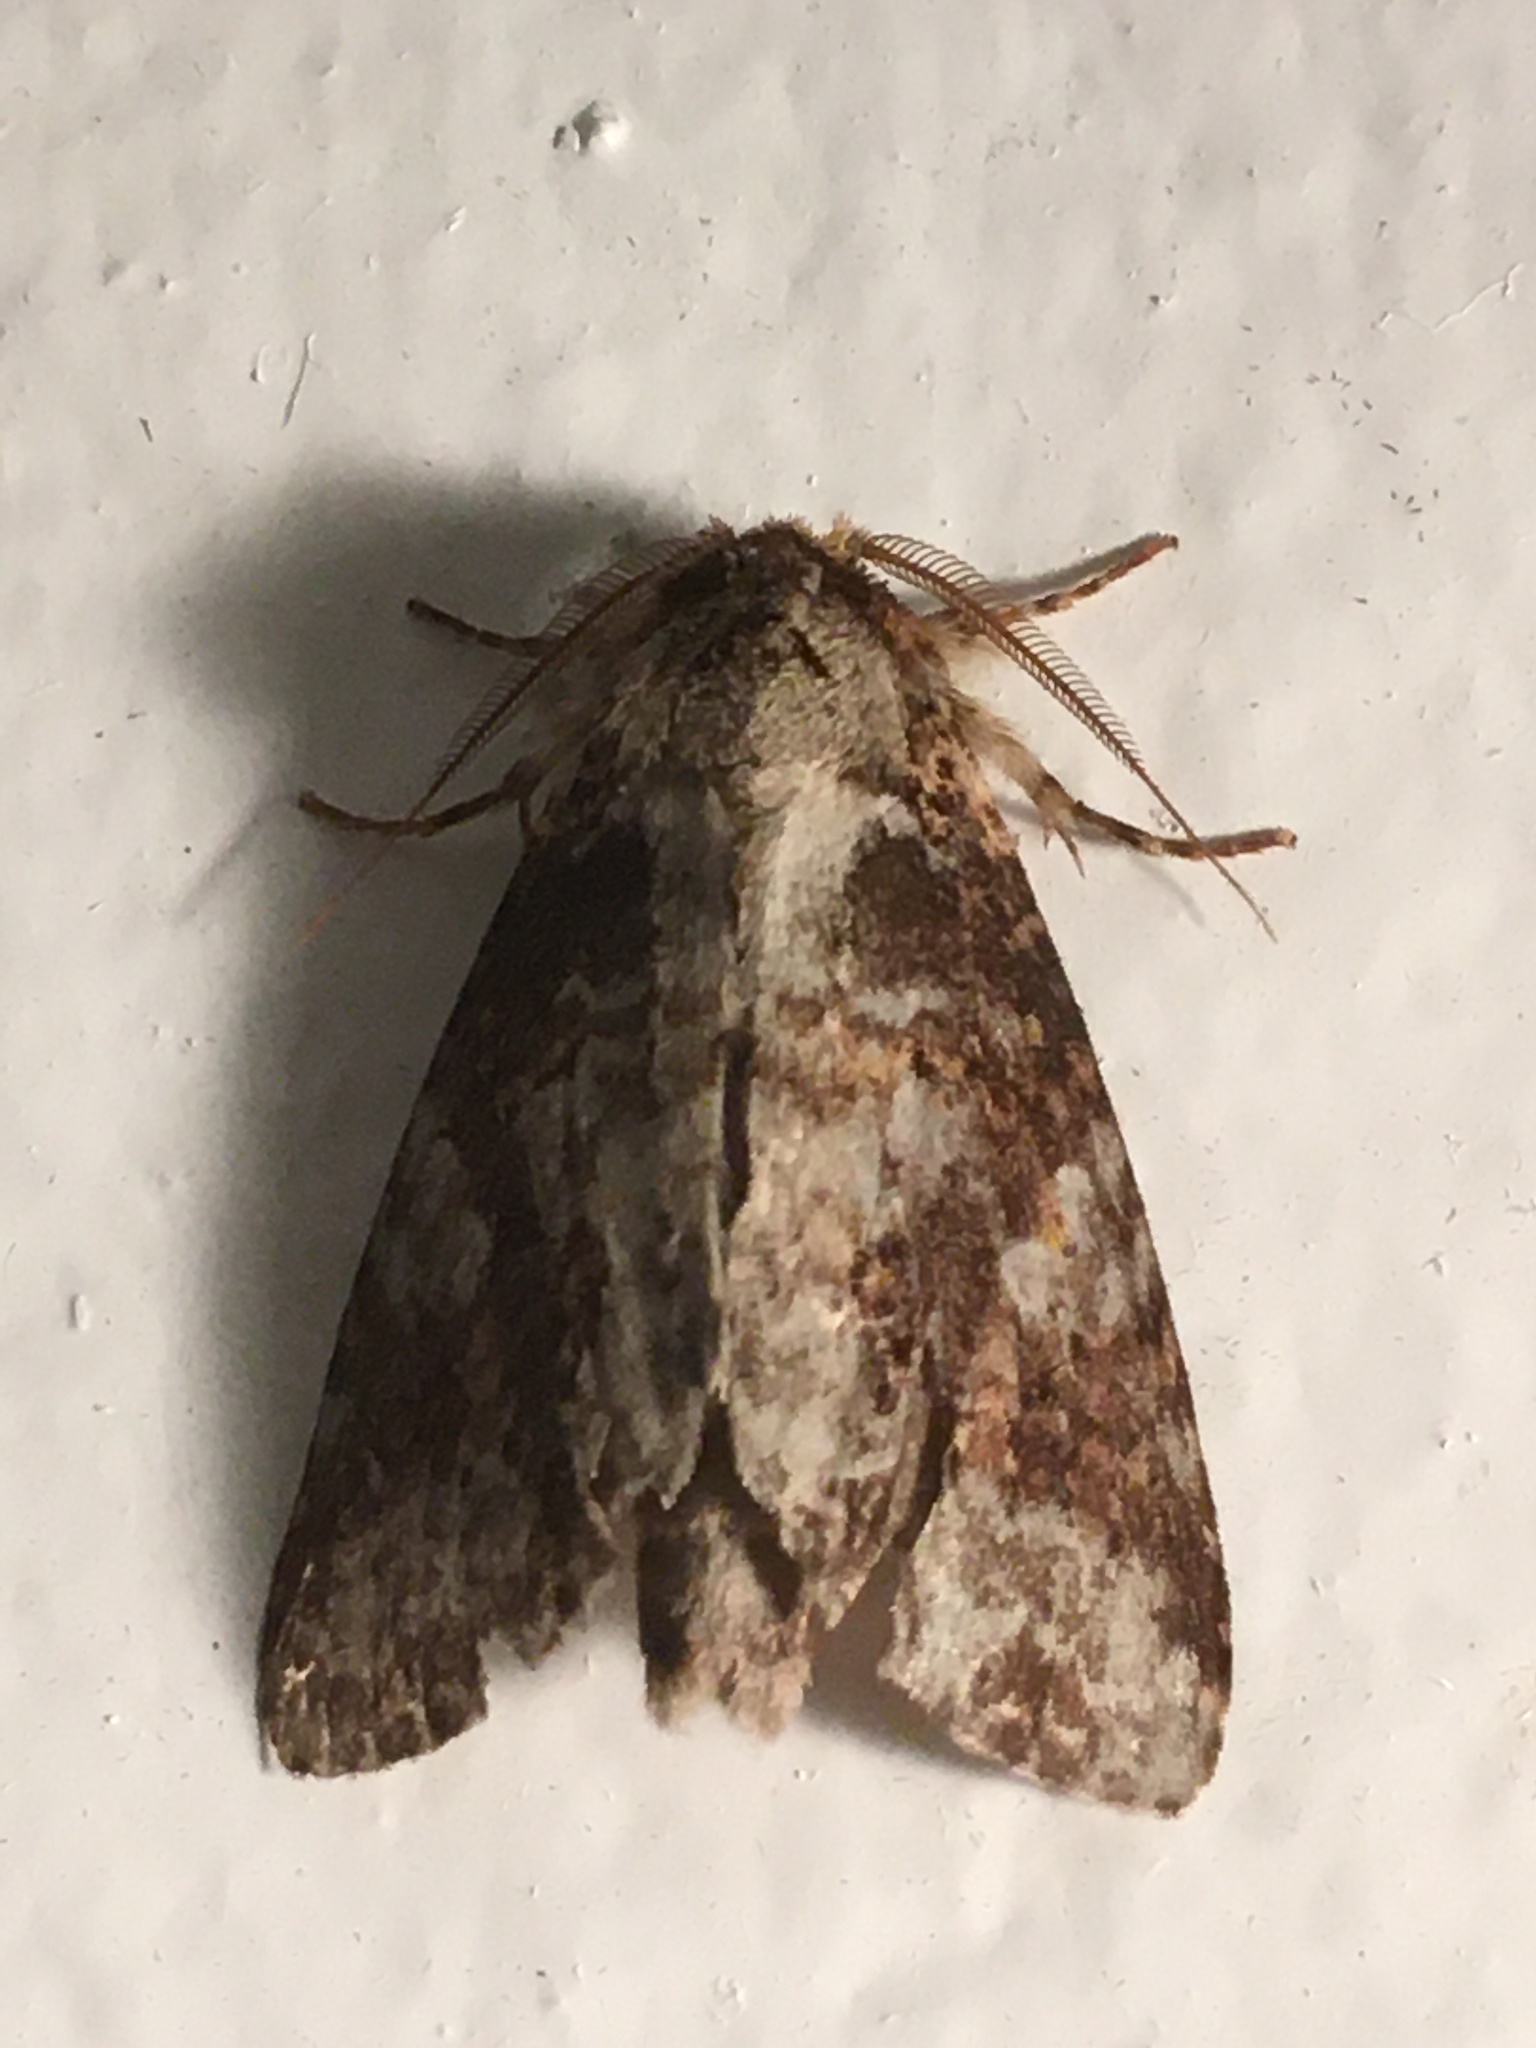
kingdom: Animalia
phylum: Arthropoda
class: Insecta
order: Lepidoptera
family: Notodontidae
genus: Disphragis
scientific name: Disphragis tharis
